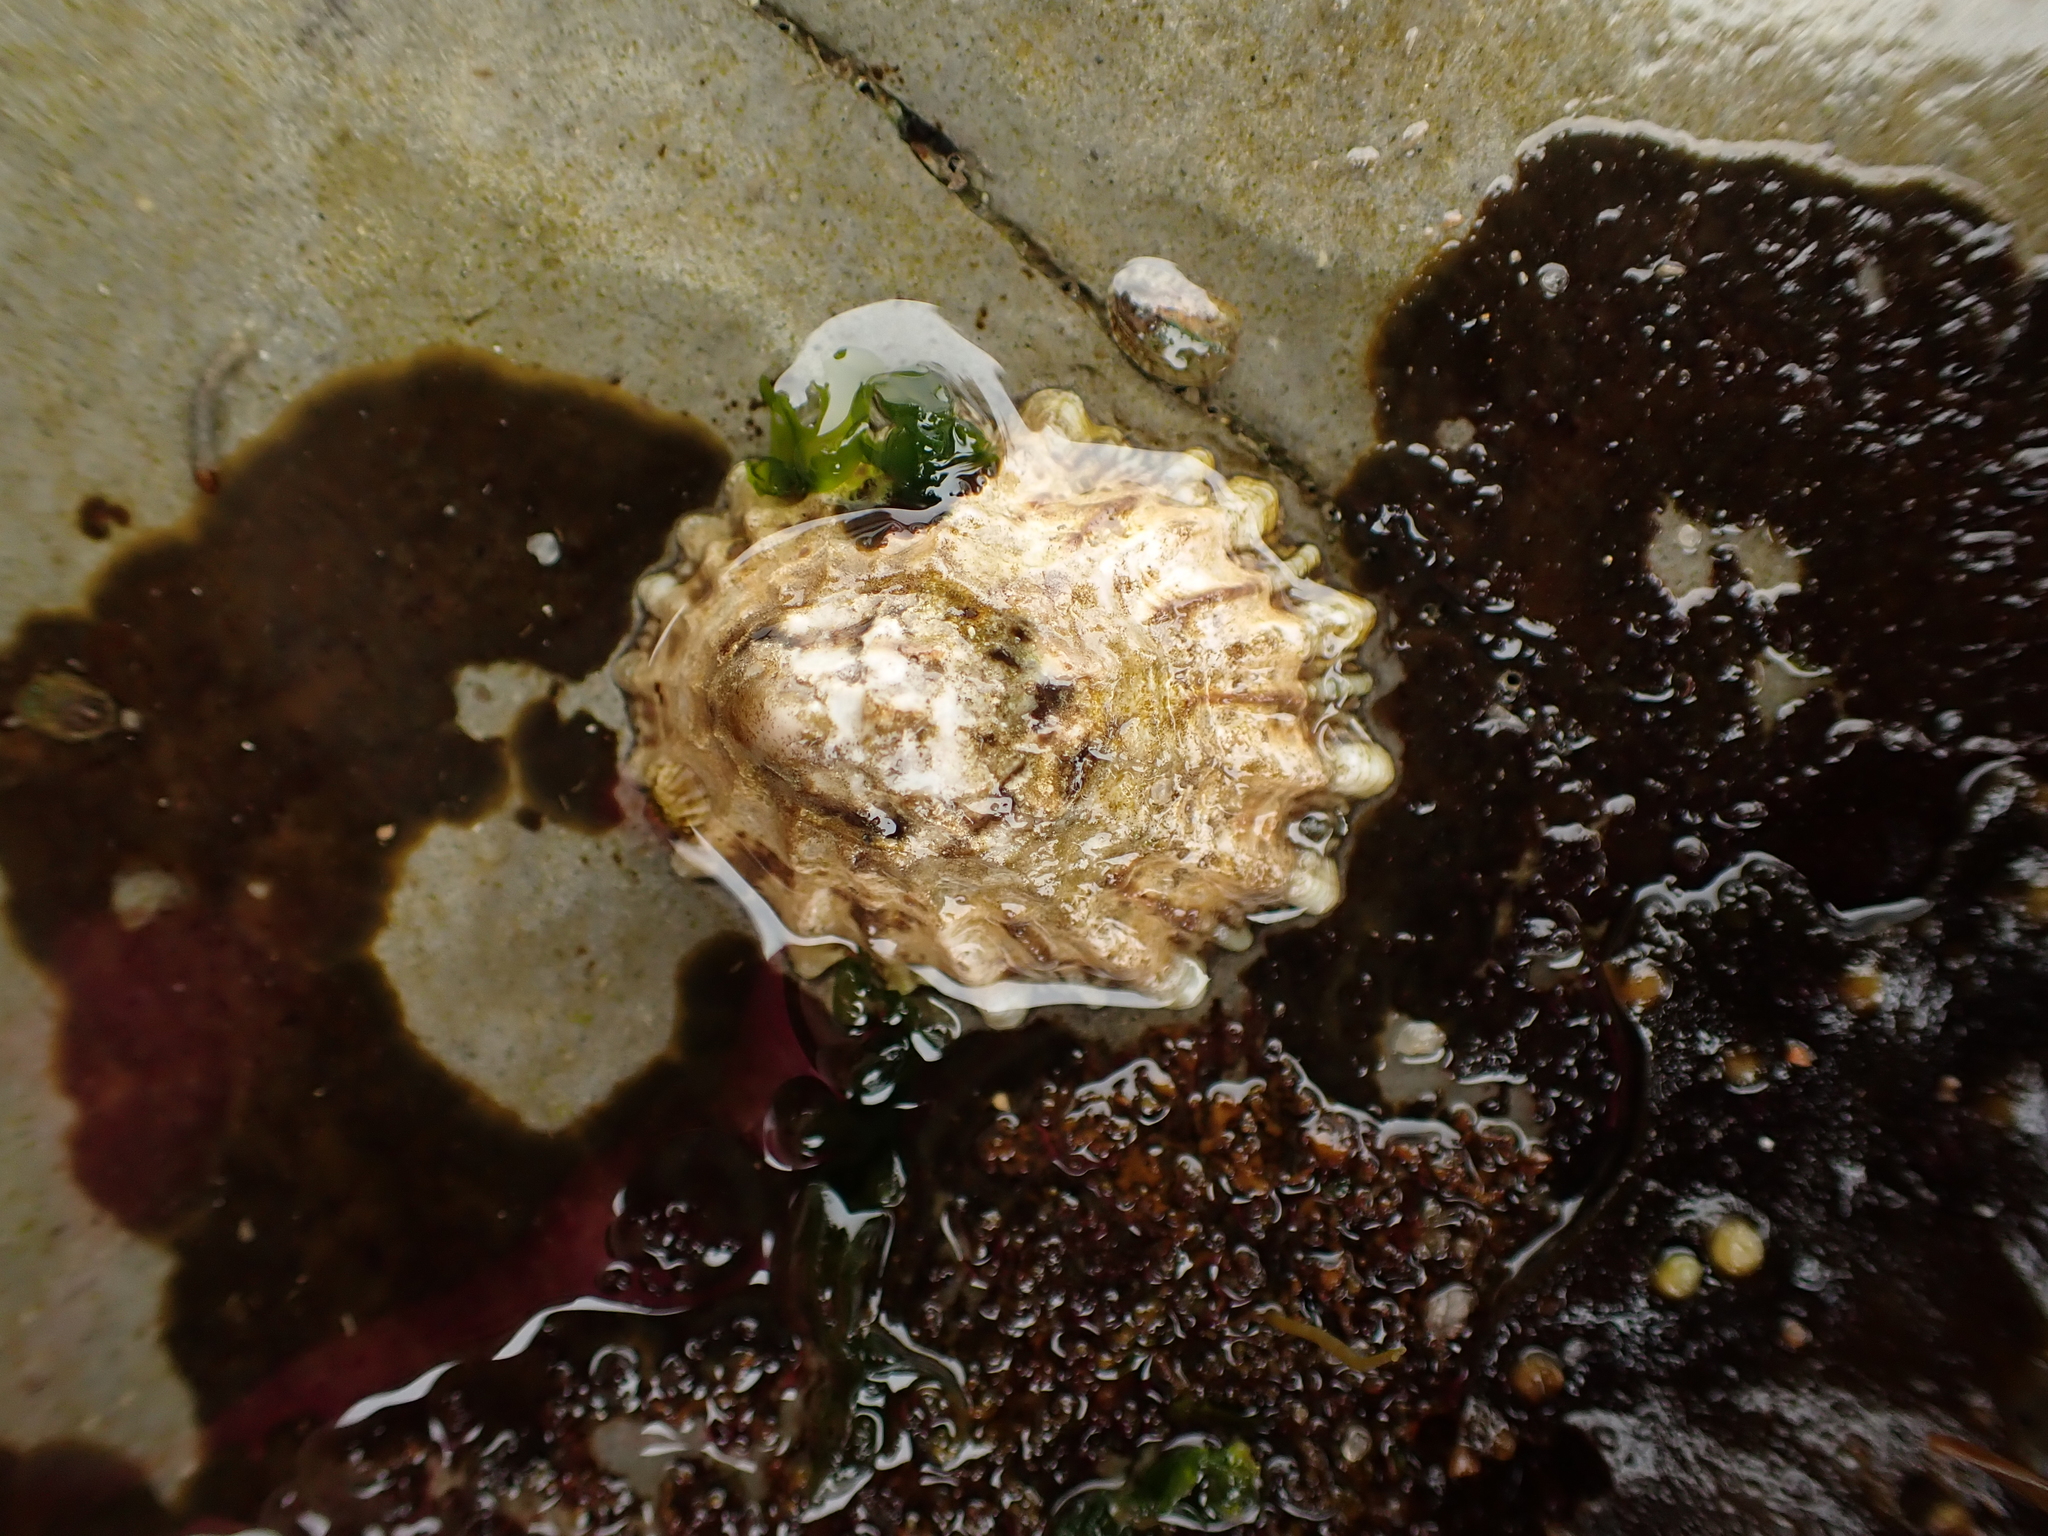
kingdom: Animalia
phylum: Mollusca
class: Gastropoda
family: Lottiidae
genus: Lottia
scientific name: Lottia scabra
